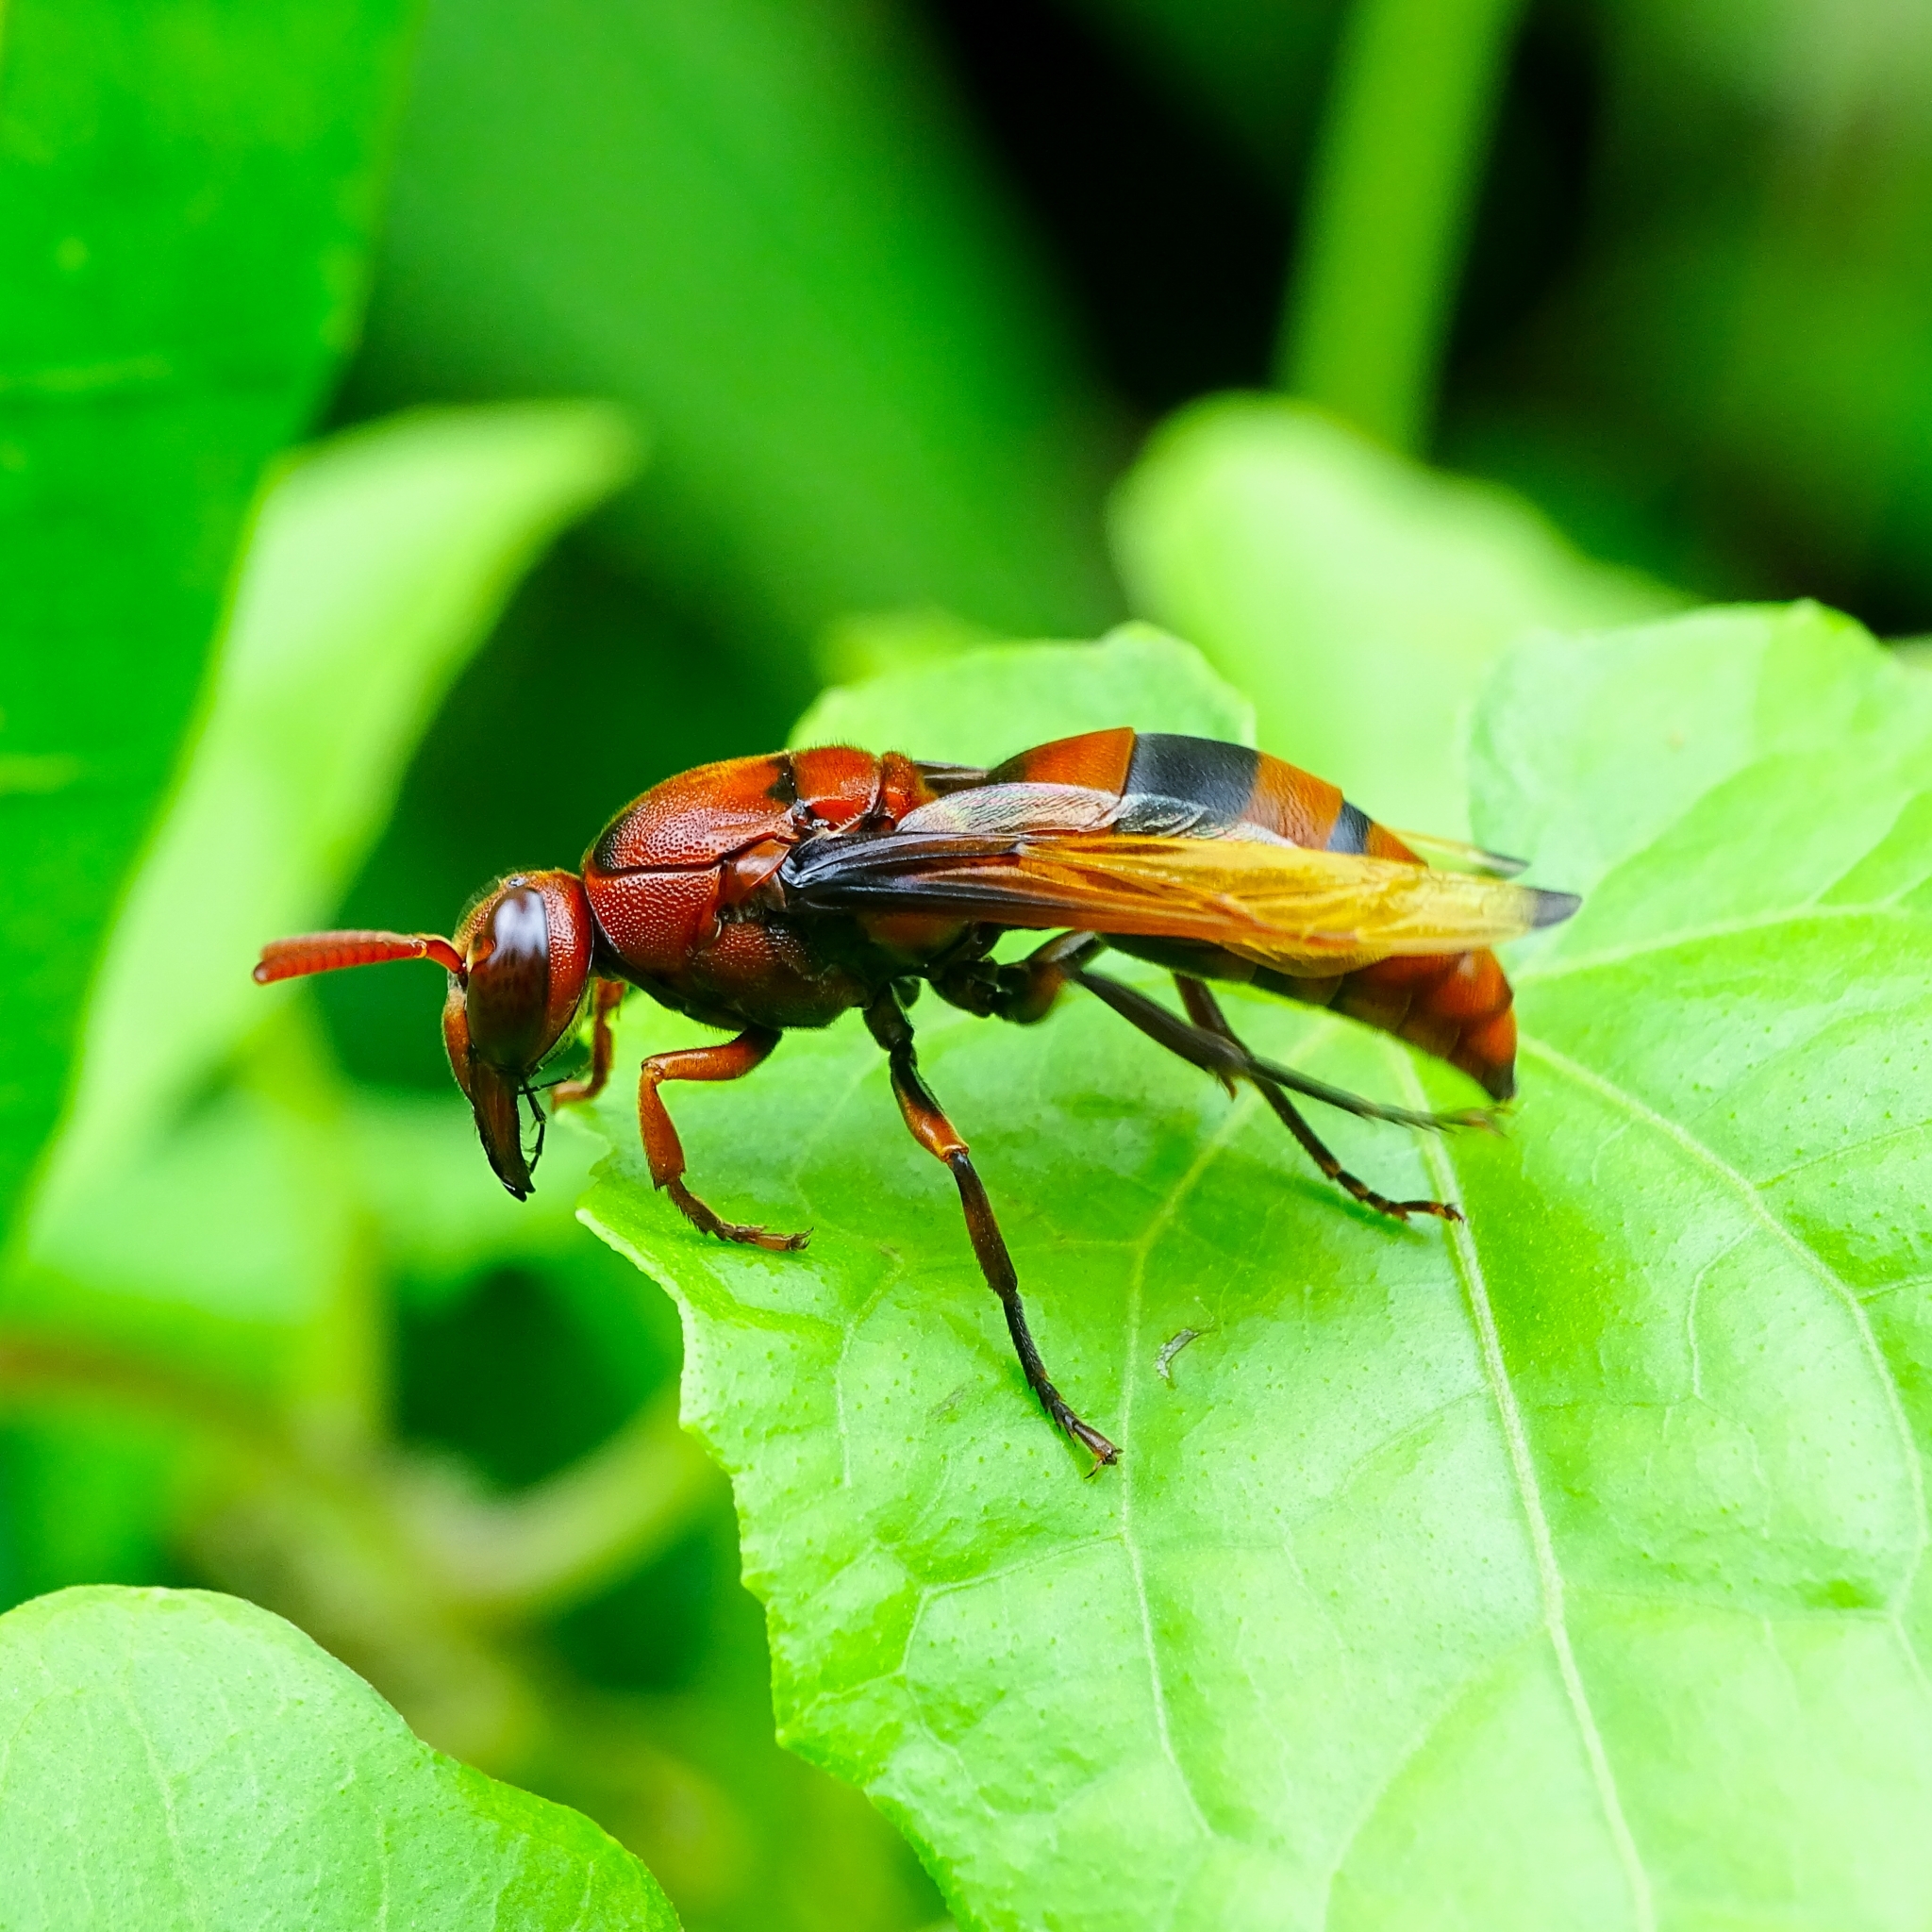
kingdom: Animalia
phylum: Arthropoda
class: Insecta
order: Hymenoptera
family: Eumenidae
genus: Rhynchium
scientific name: Rhynchium brunneum
